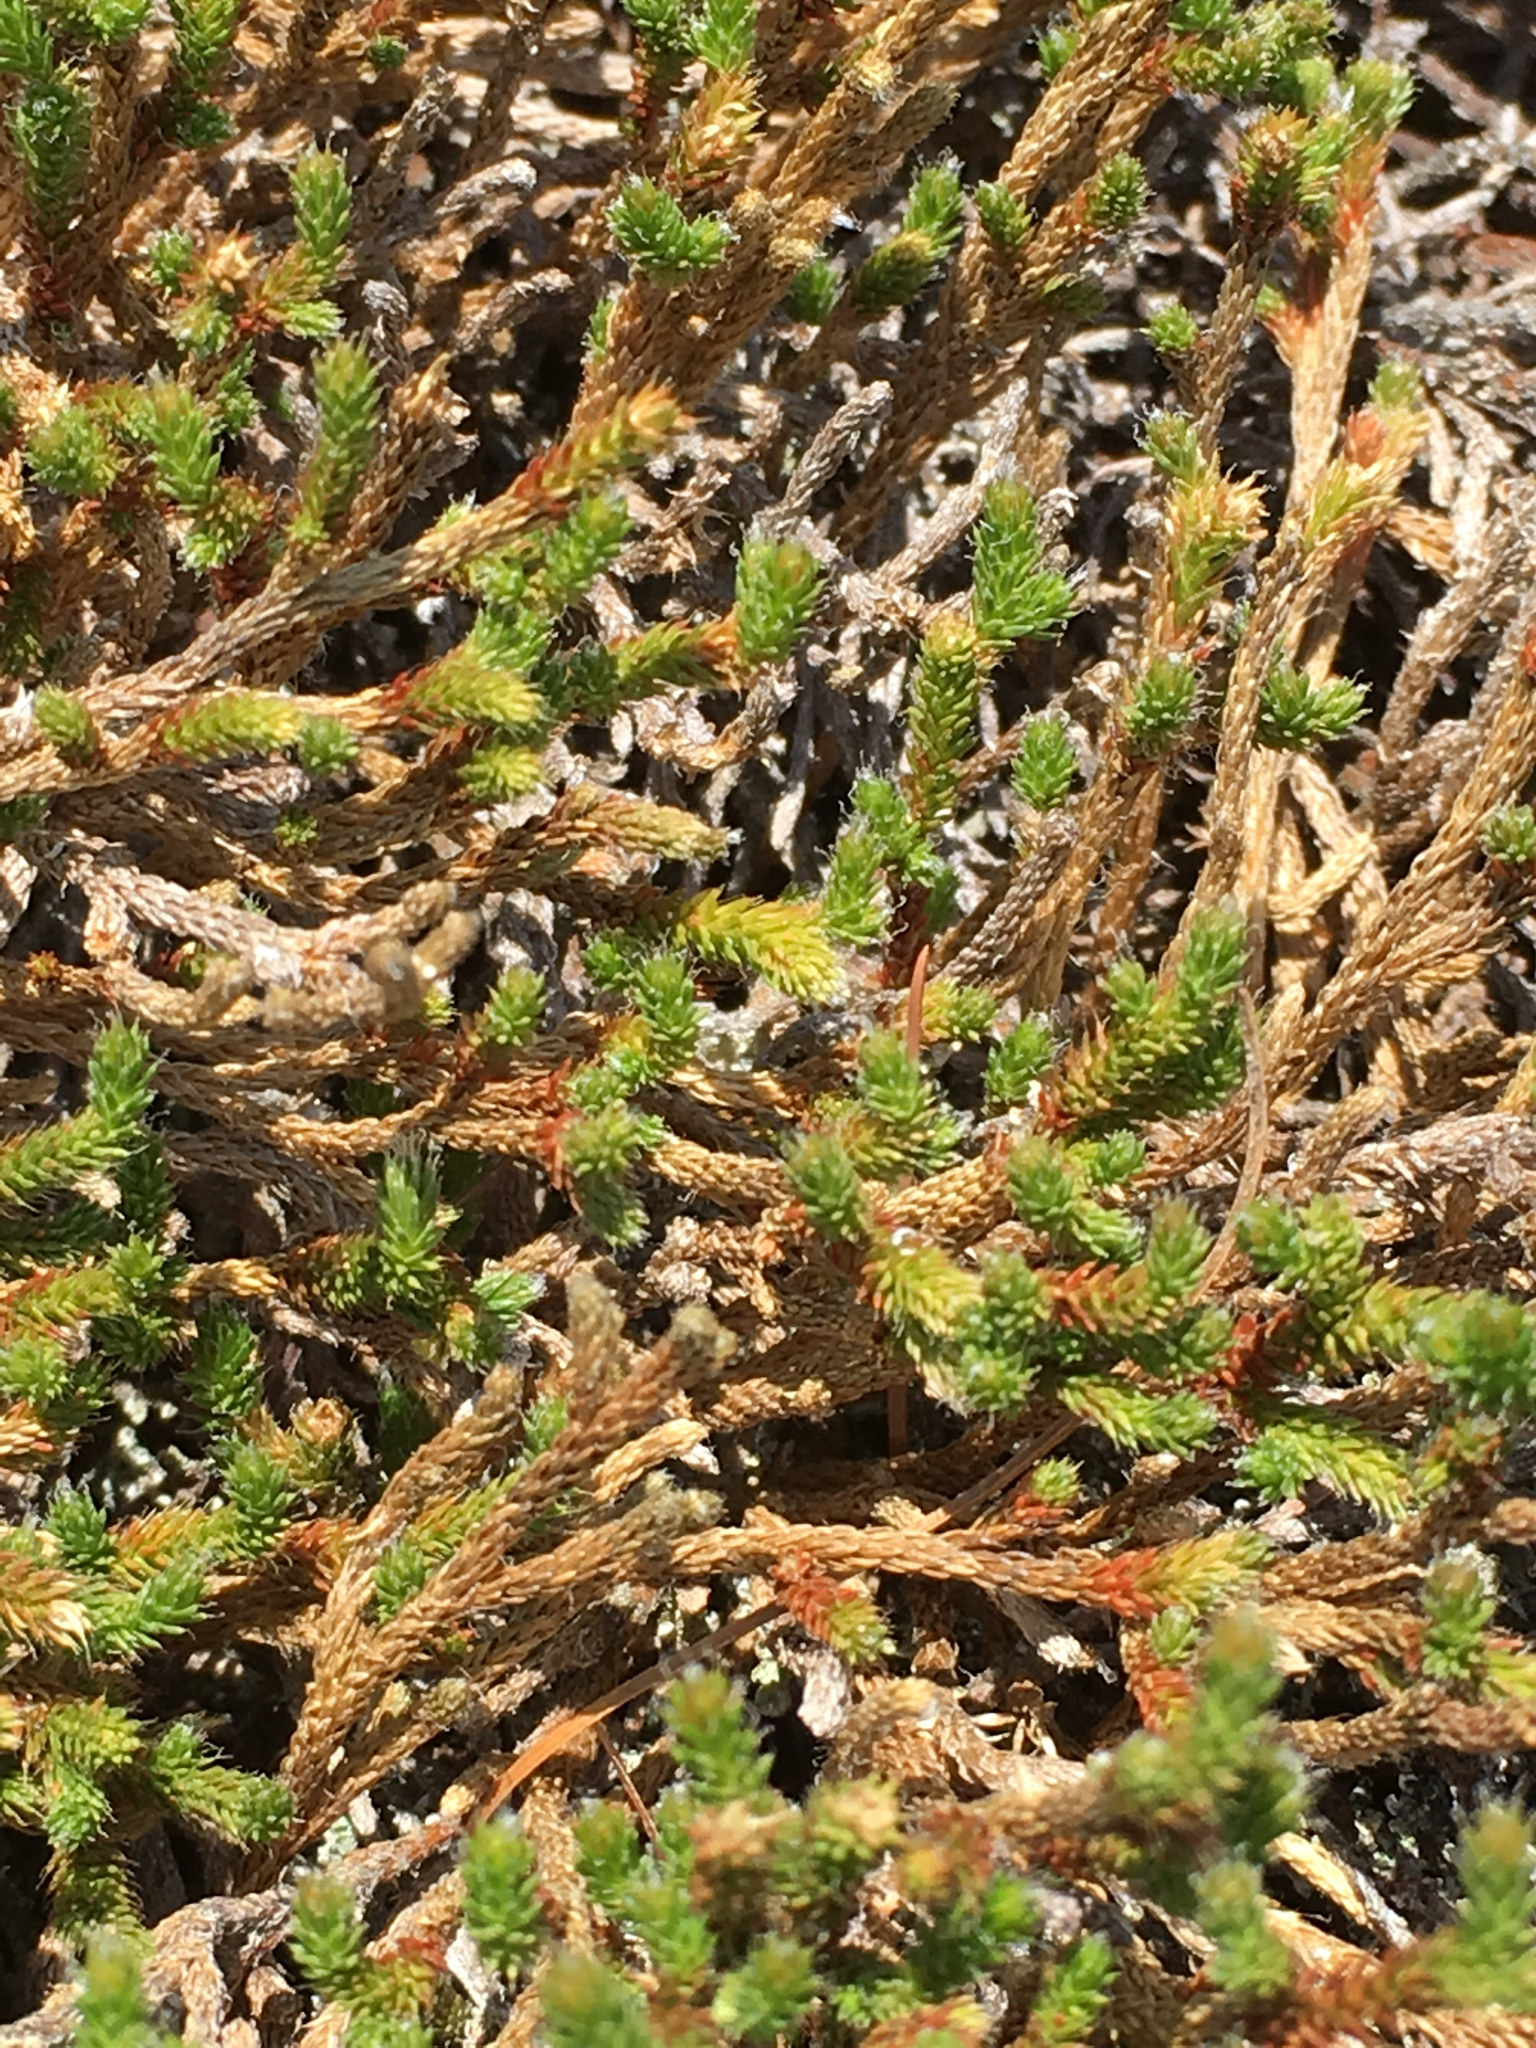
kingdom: Plantae
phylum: Tracheophyta
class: Lycopodiopsida
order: Selaginellales
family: Selaginellaceae
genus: Selaginella
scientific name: Selaginella tortipila
